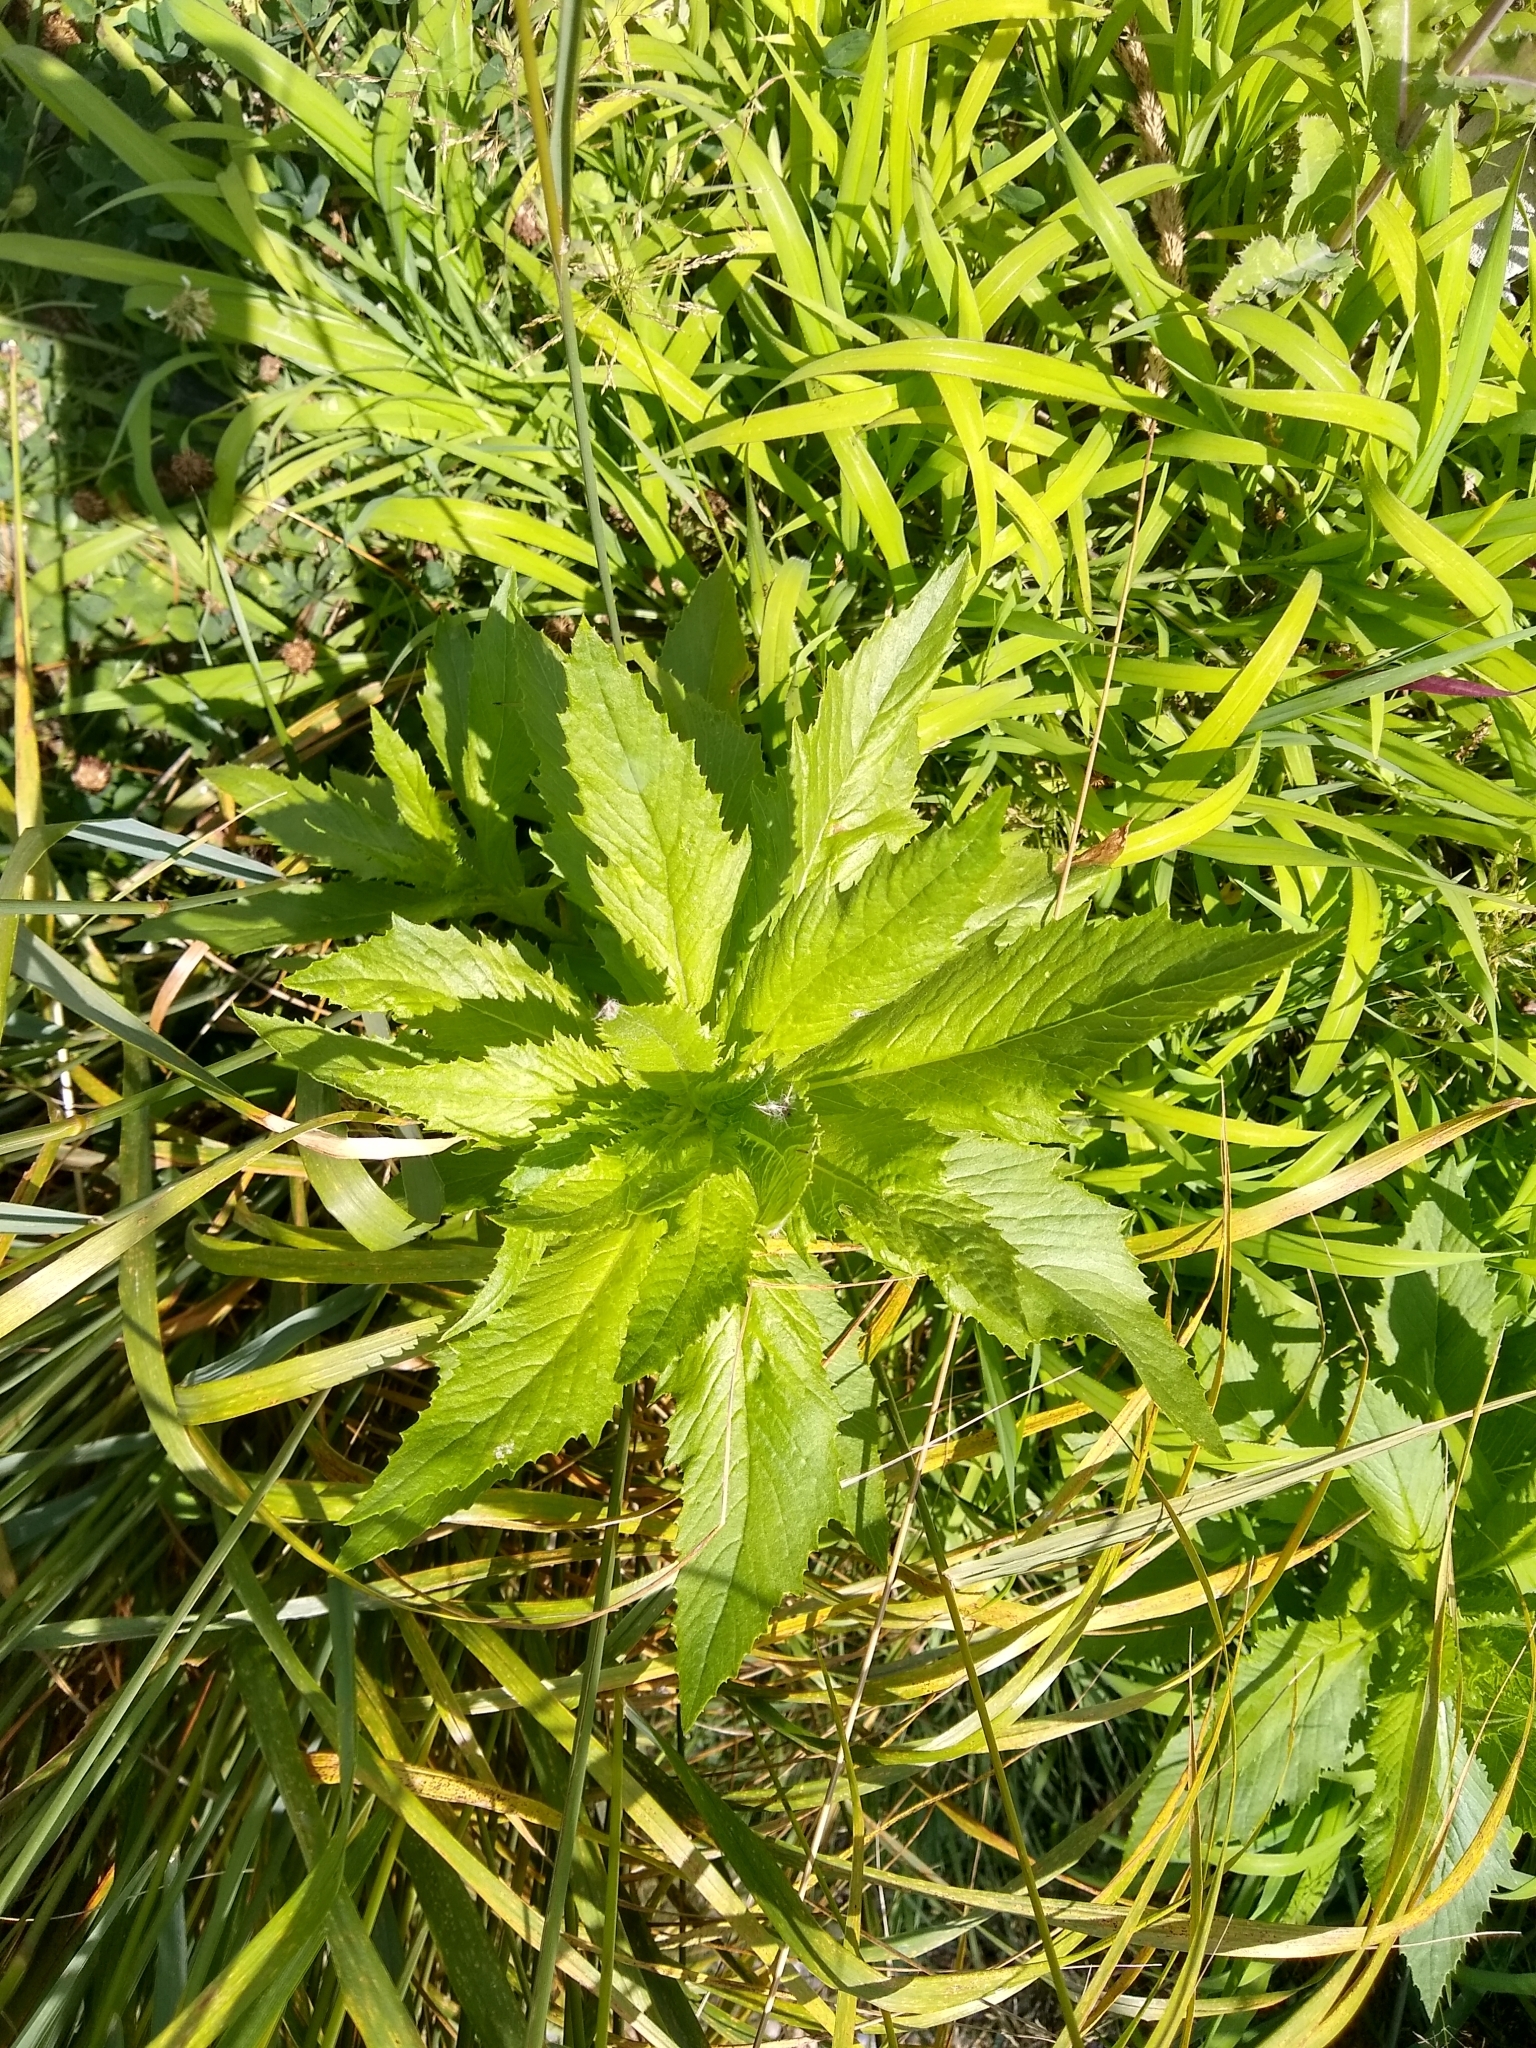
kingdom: Plantae
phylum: Tracheophyta
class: Magnoliopsida
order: Asterales
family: Asteraceae
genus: Erechtites
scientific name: Erechtites hieraciifolius
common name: American burnweed
